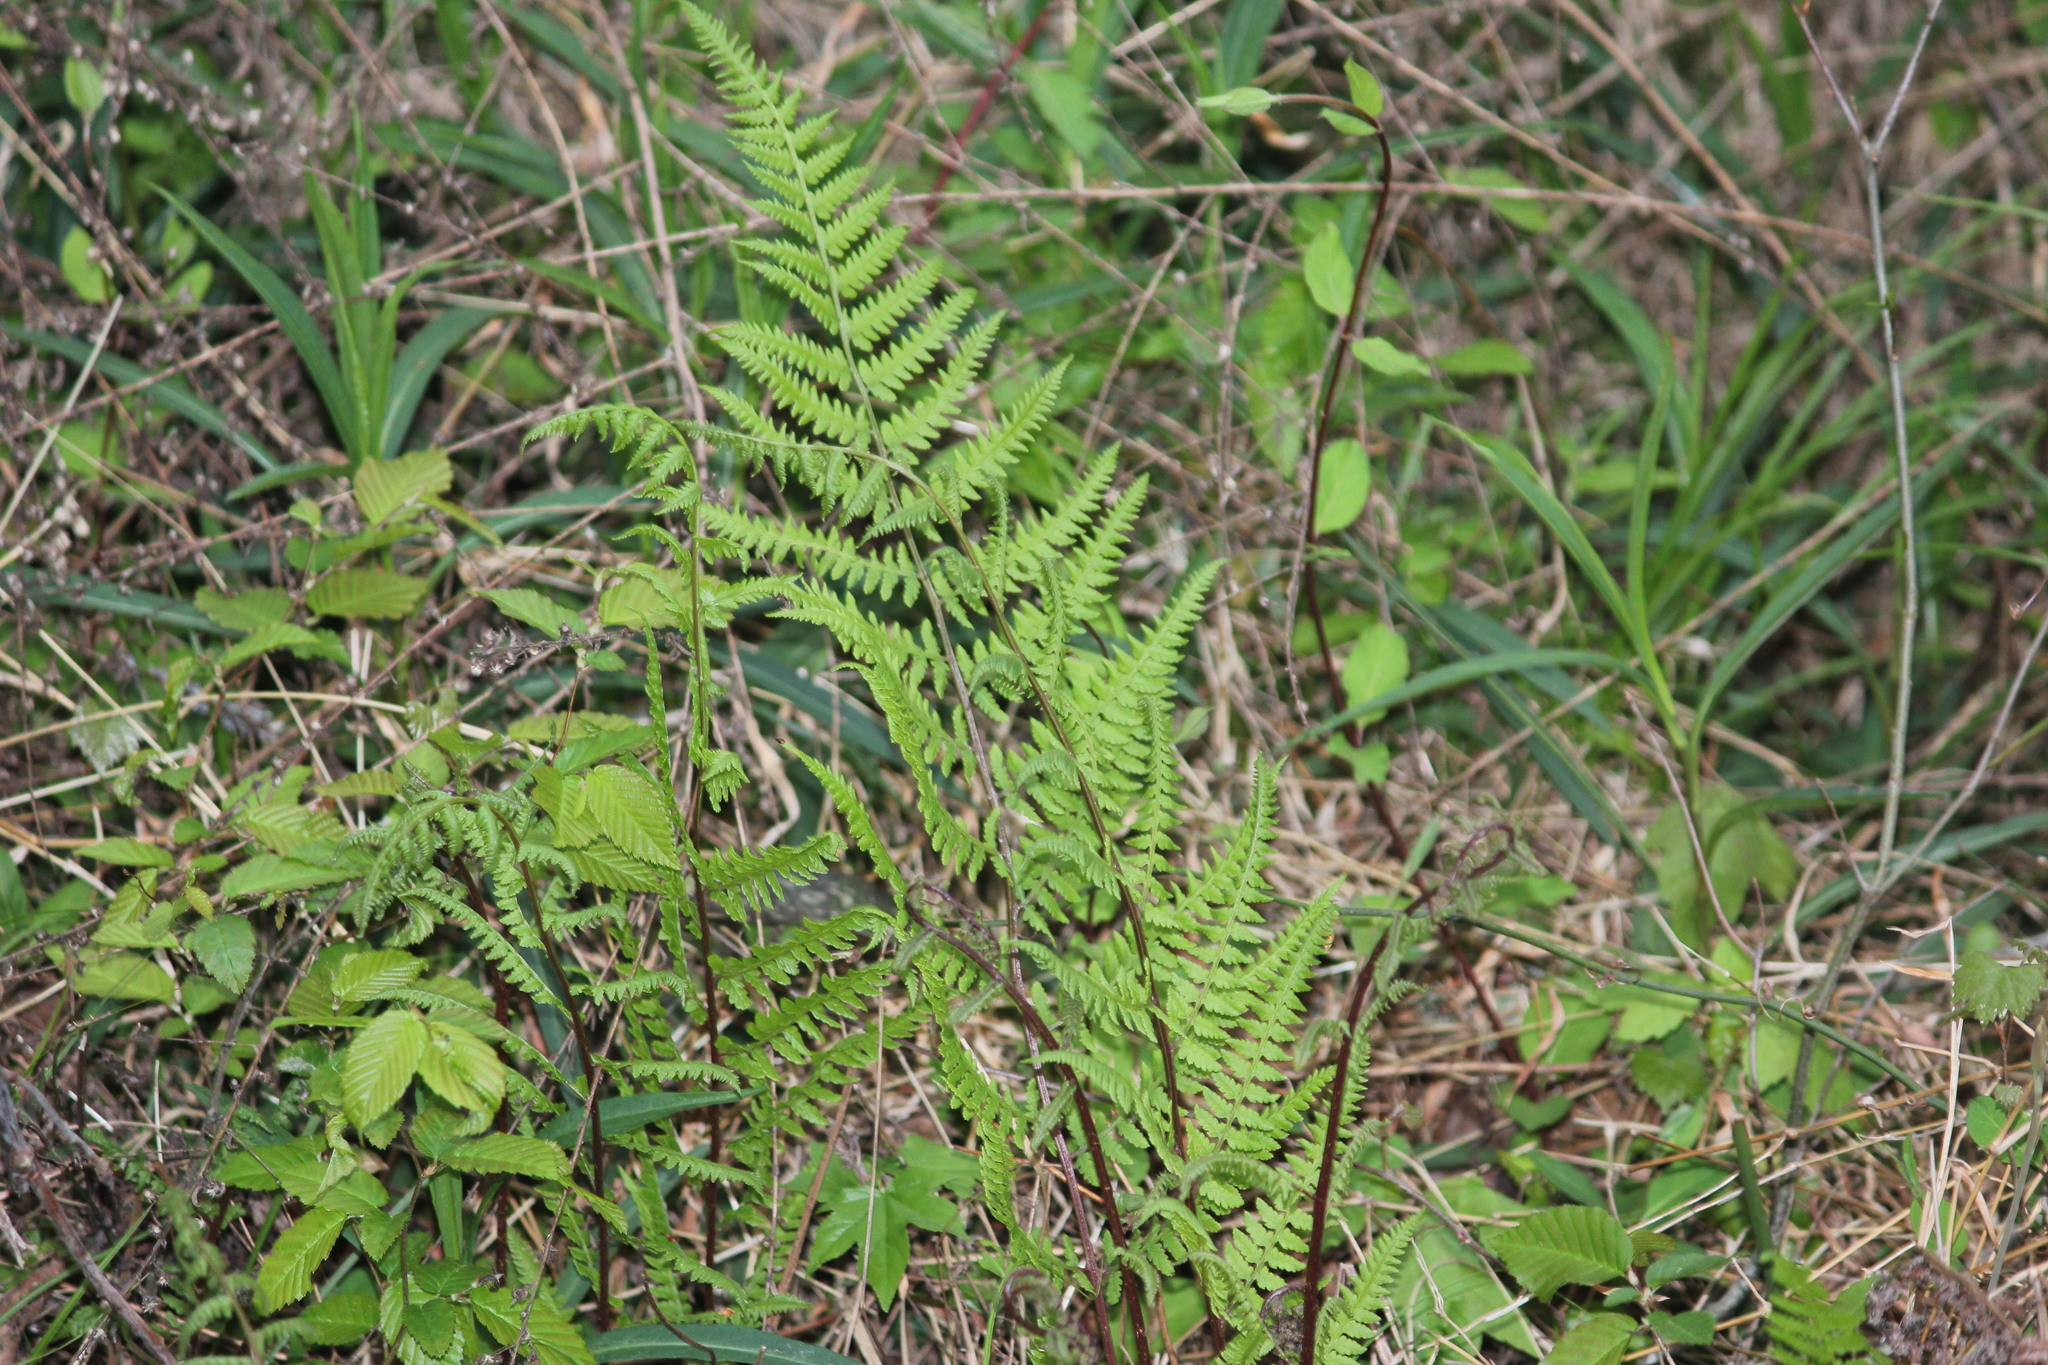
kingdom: Plantae
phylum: Tracheophyta
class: Polypodiopsida
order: Polypodiales
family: Athyriaceae
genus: Athyrium
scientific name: Athyrium asplenioides
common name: Southern lady fern
